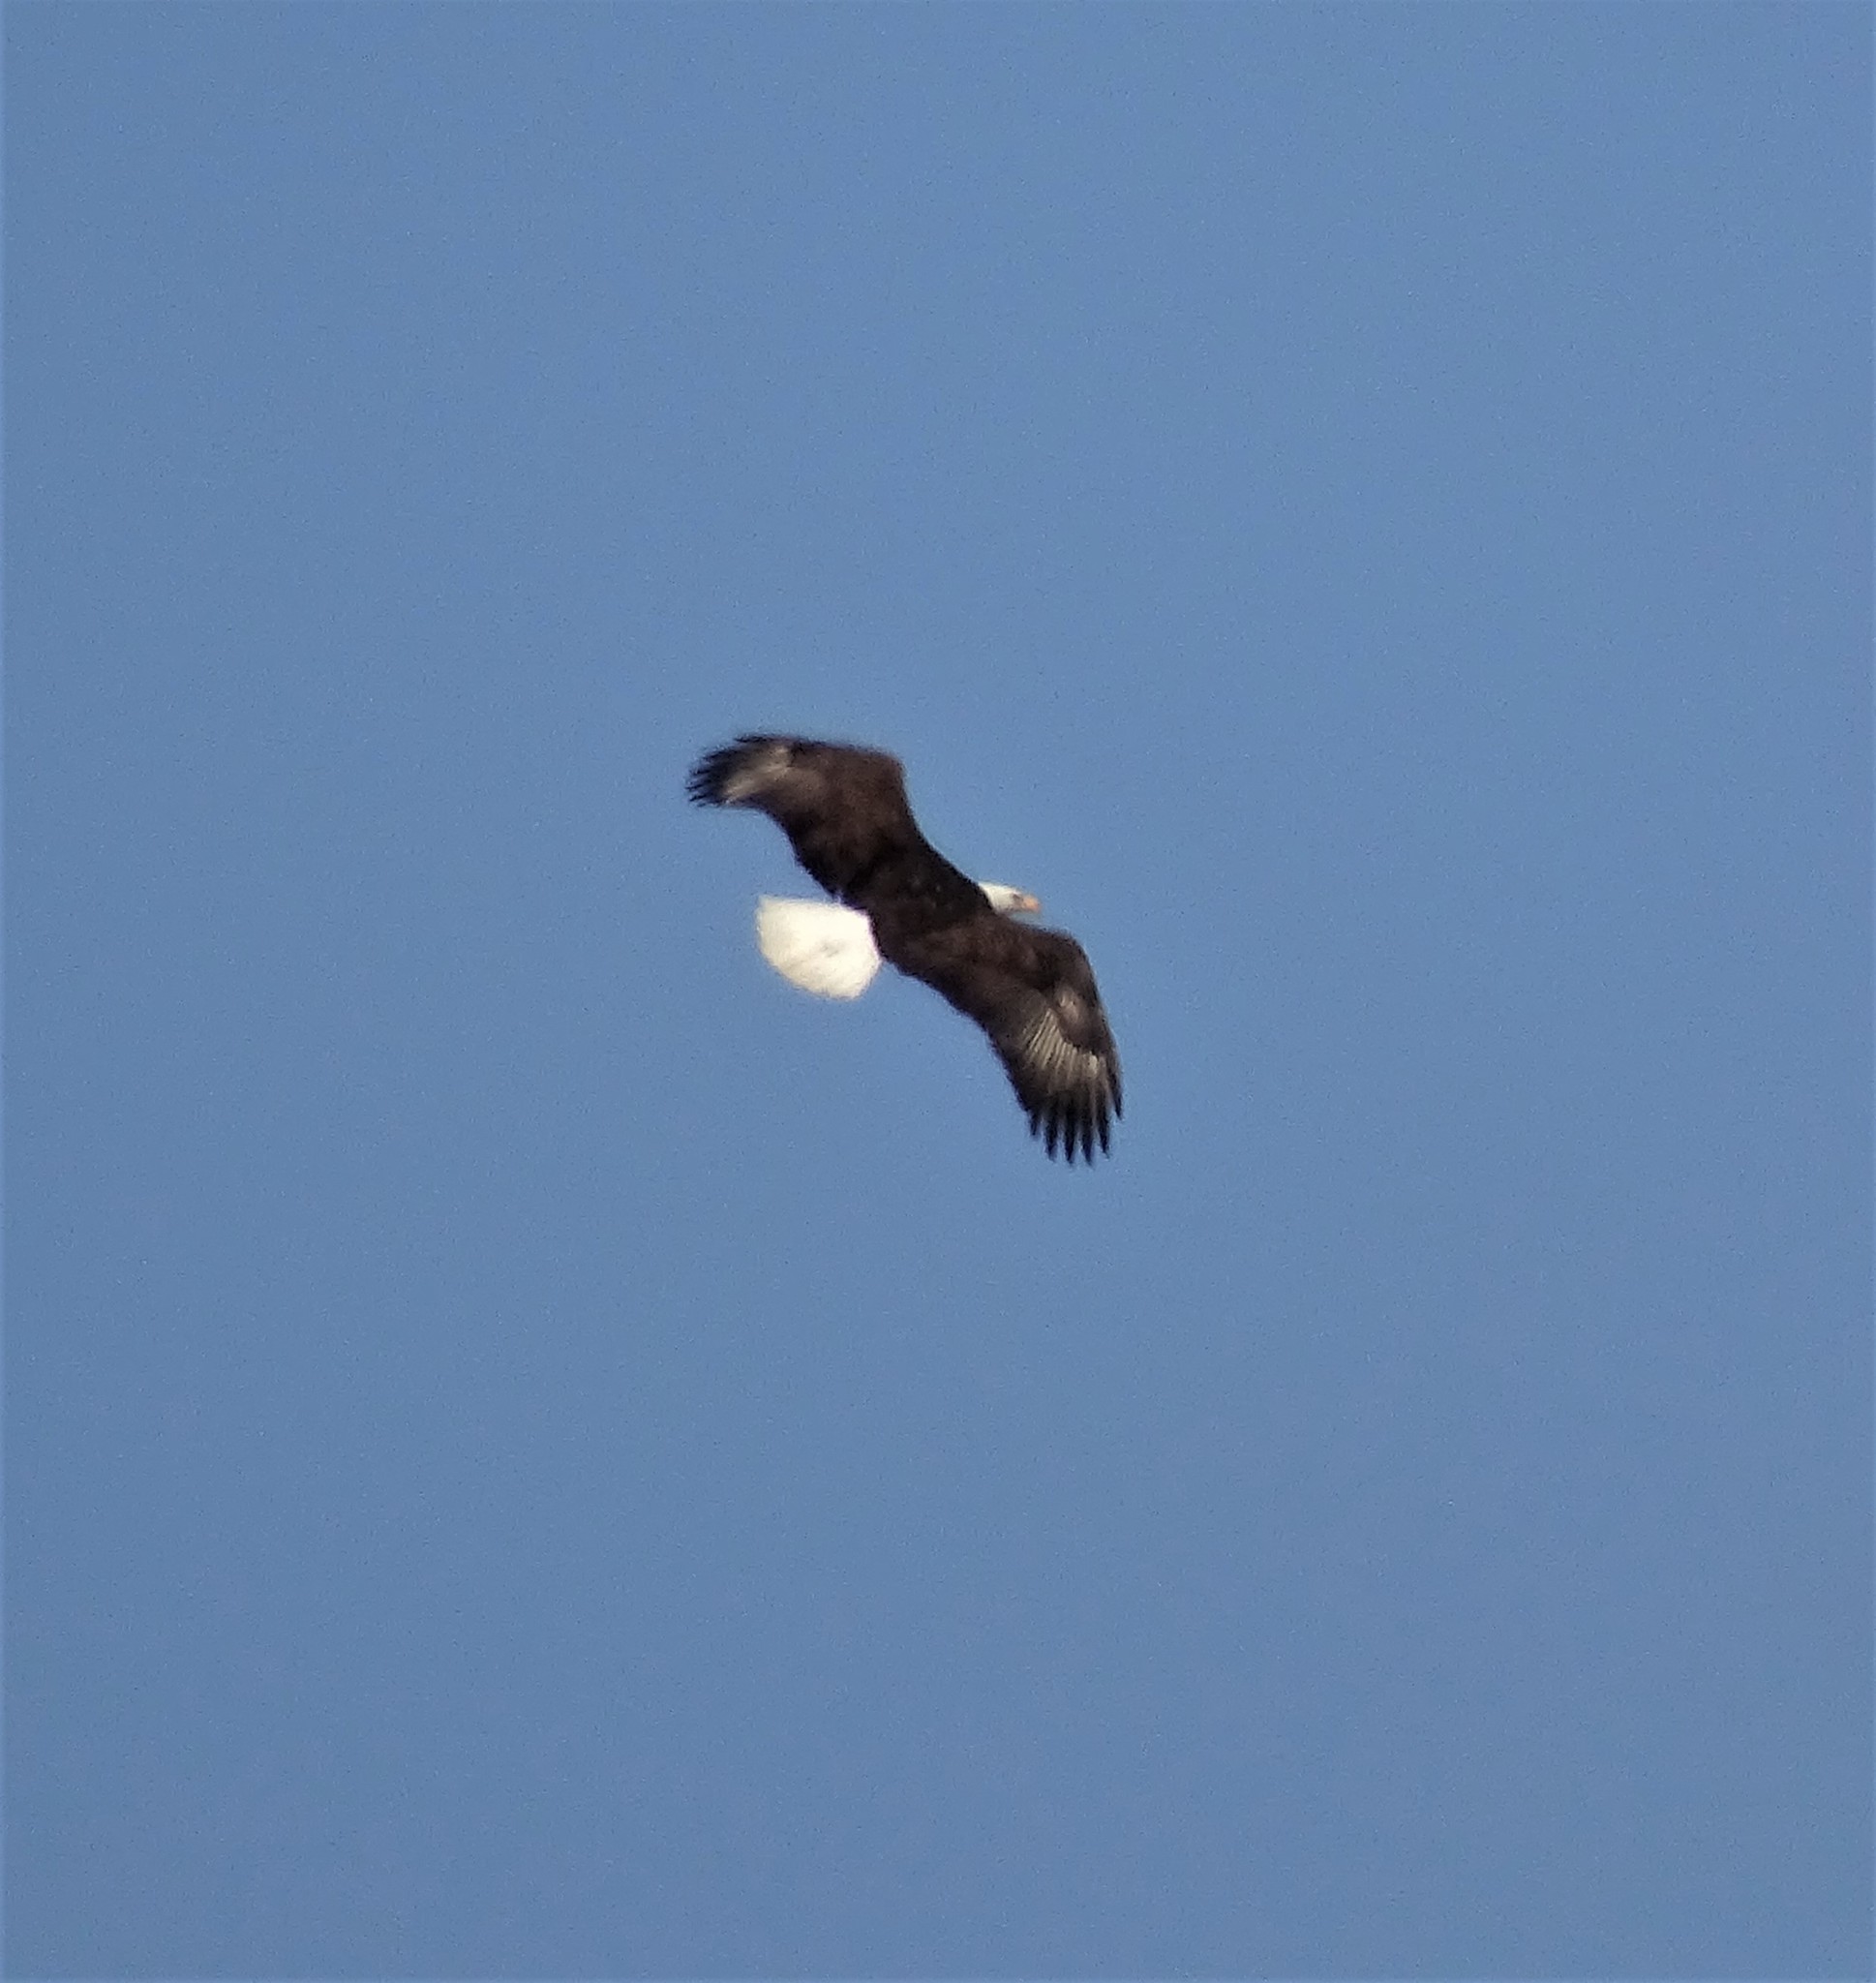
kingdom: Animalia
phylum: Chordata
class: Aves
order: Accipitriformes
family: Accipitridae
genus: Haliaeetus
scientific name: Haliaeetus leucocephalus
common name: Bald eagle
